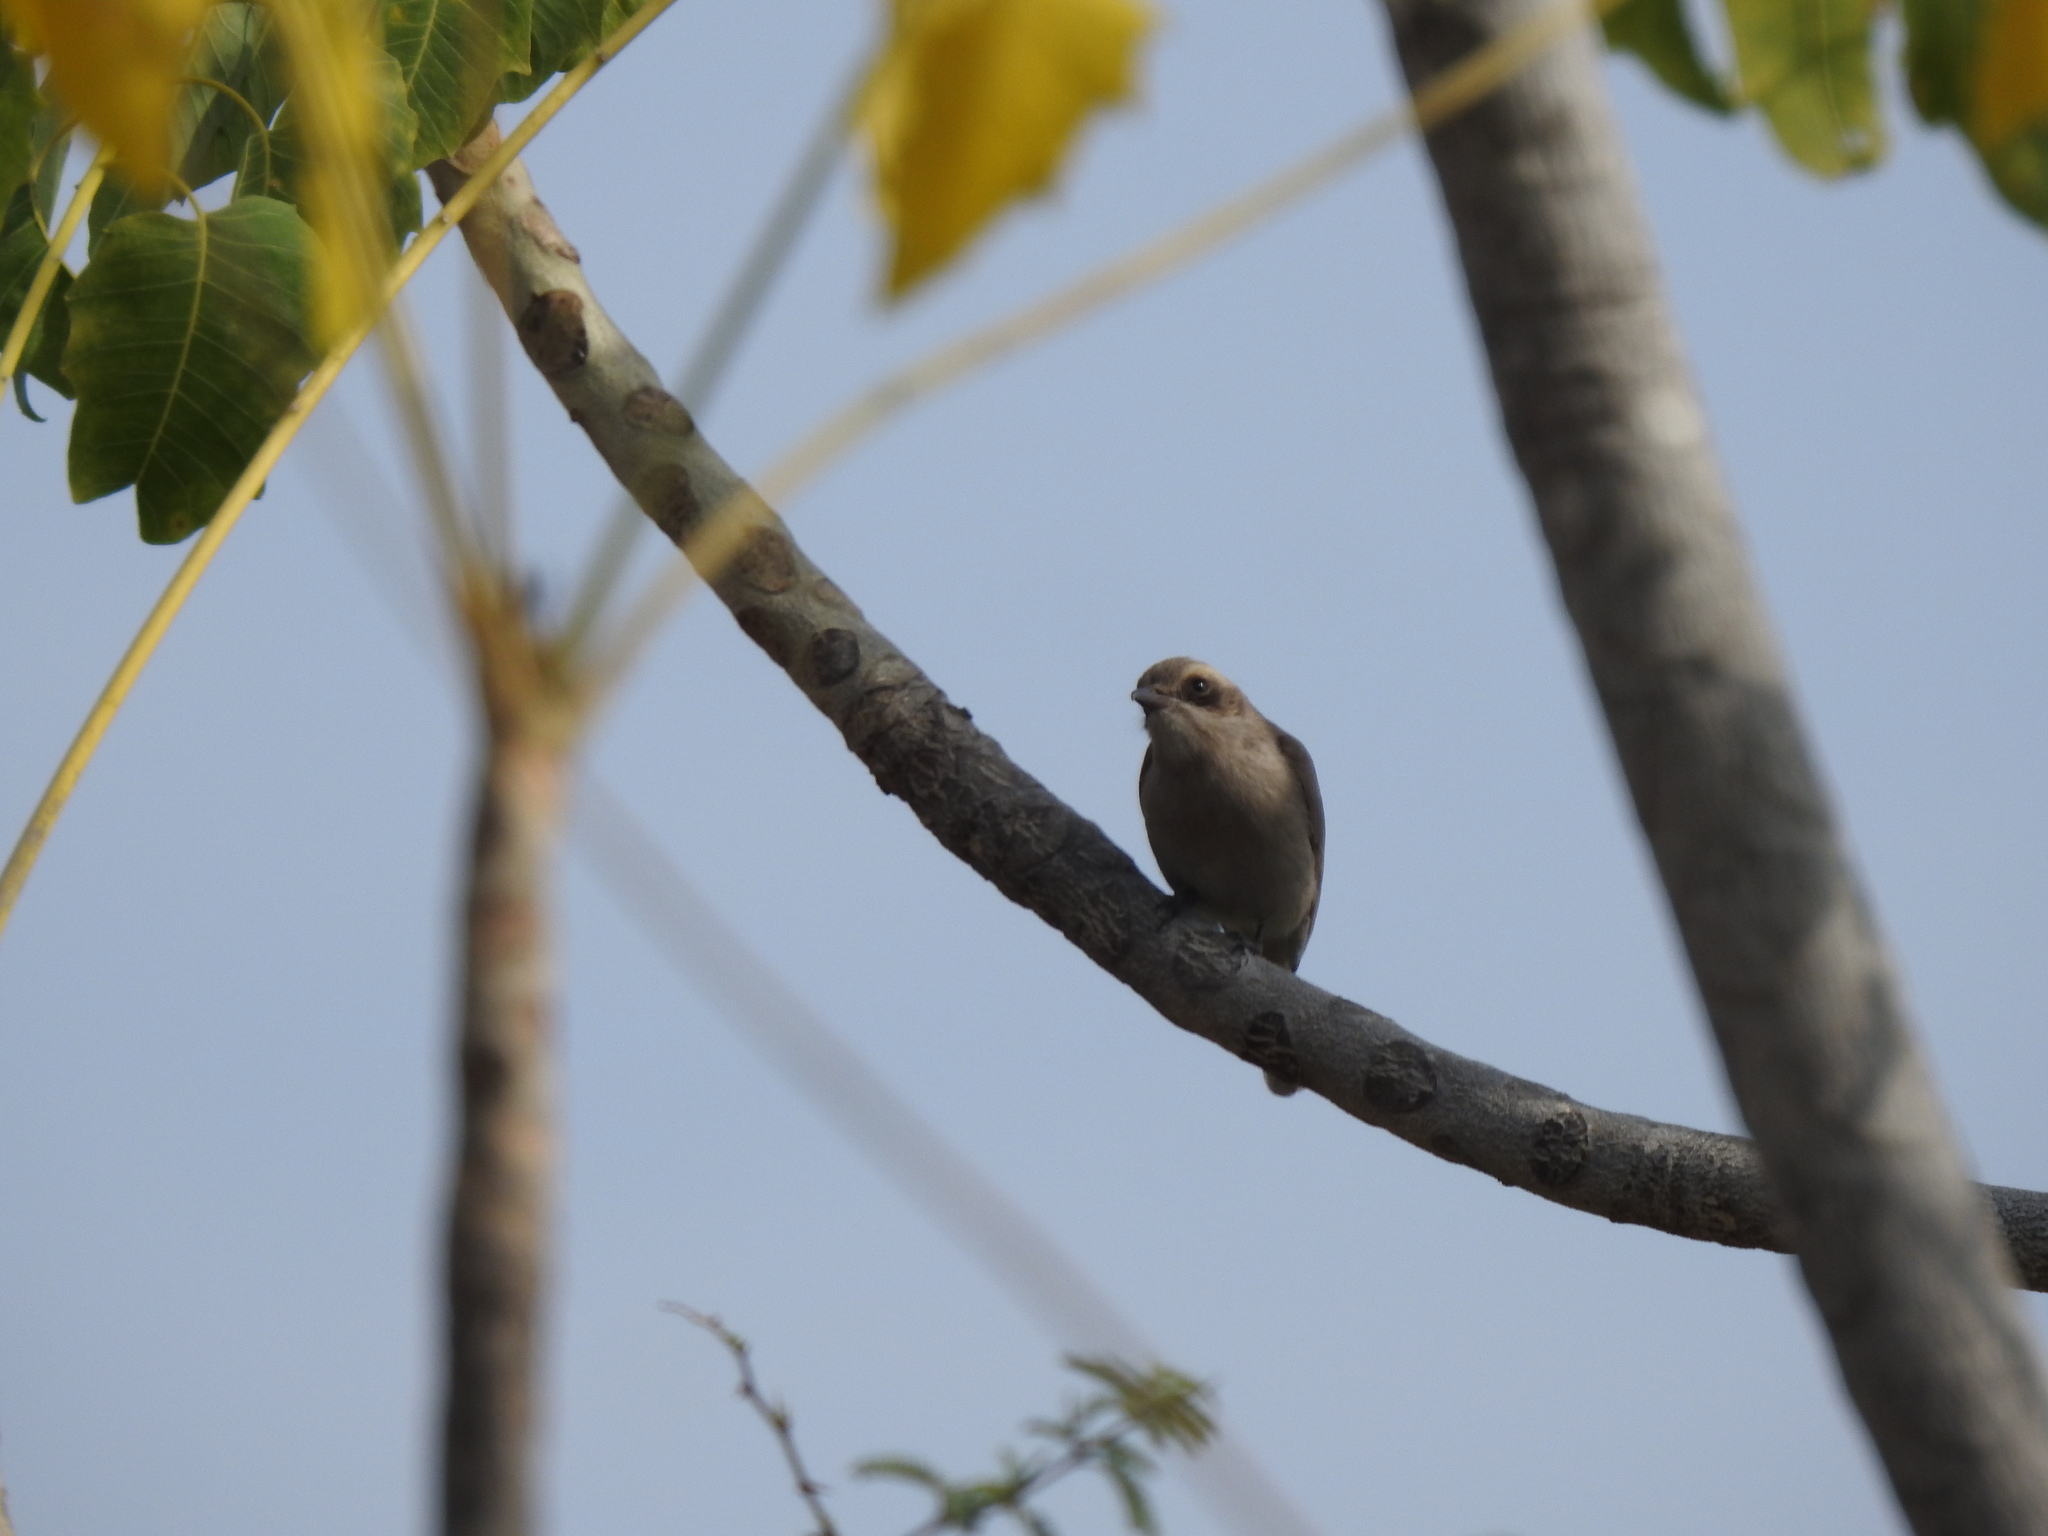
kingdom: Animalia
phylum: Chordata
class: Aves
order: Passeriformes
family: Tephrodornithidae
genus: Tephrodornis
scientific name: Tephrodornis pondicerianus
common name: Common woodshrike
